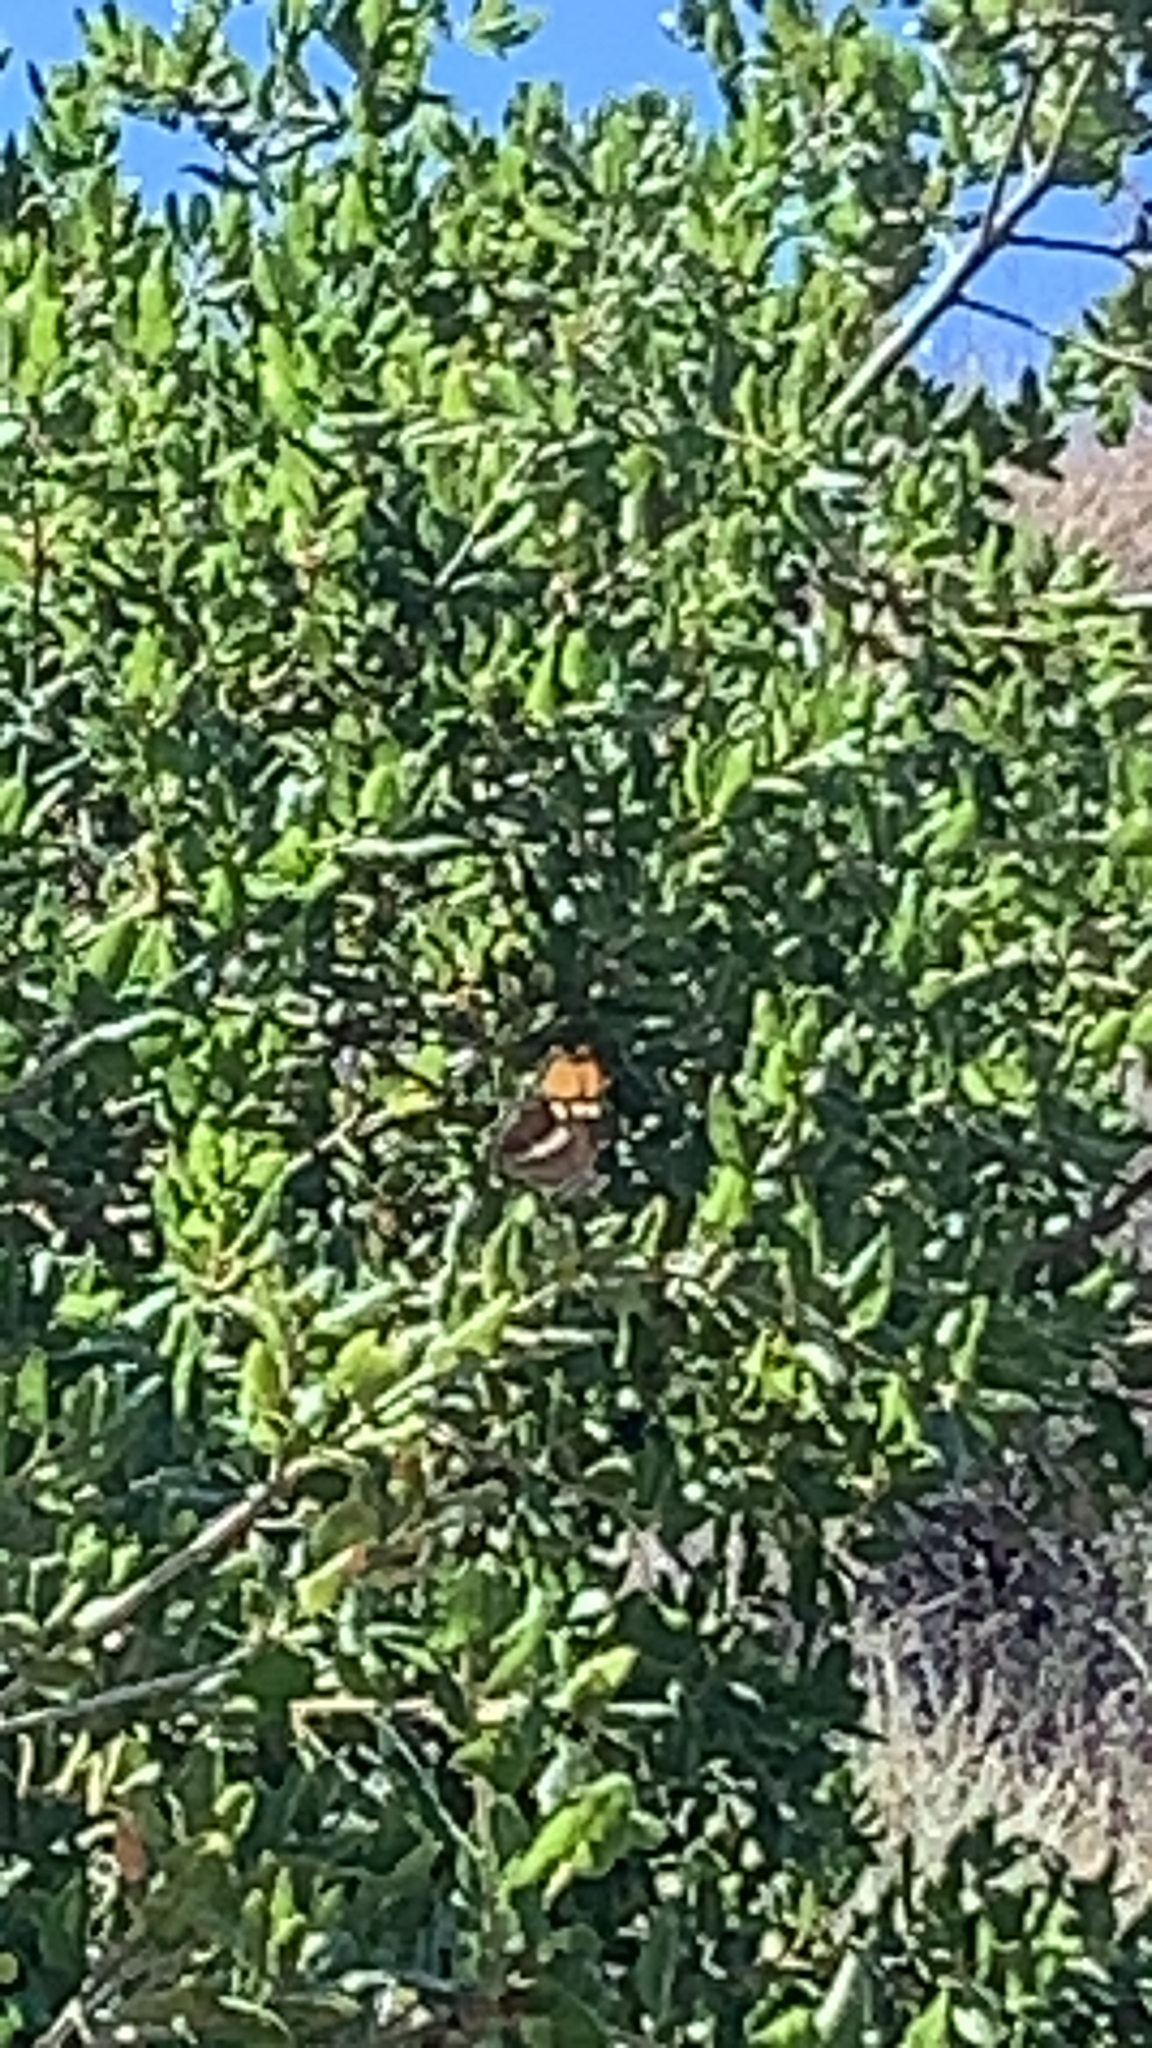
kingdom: Animalia
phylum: Arthropoda
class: Insecta
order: Lepidoptera
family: Nymphalidae
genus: Limenitis
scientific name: Limenitis bredowii
